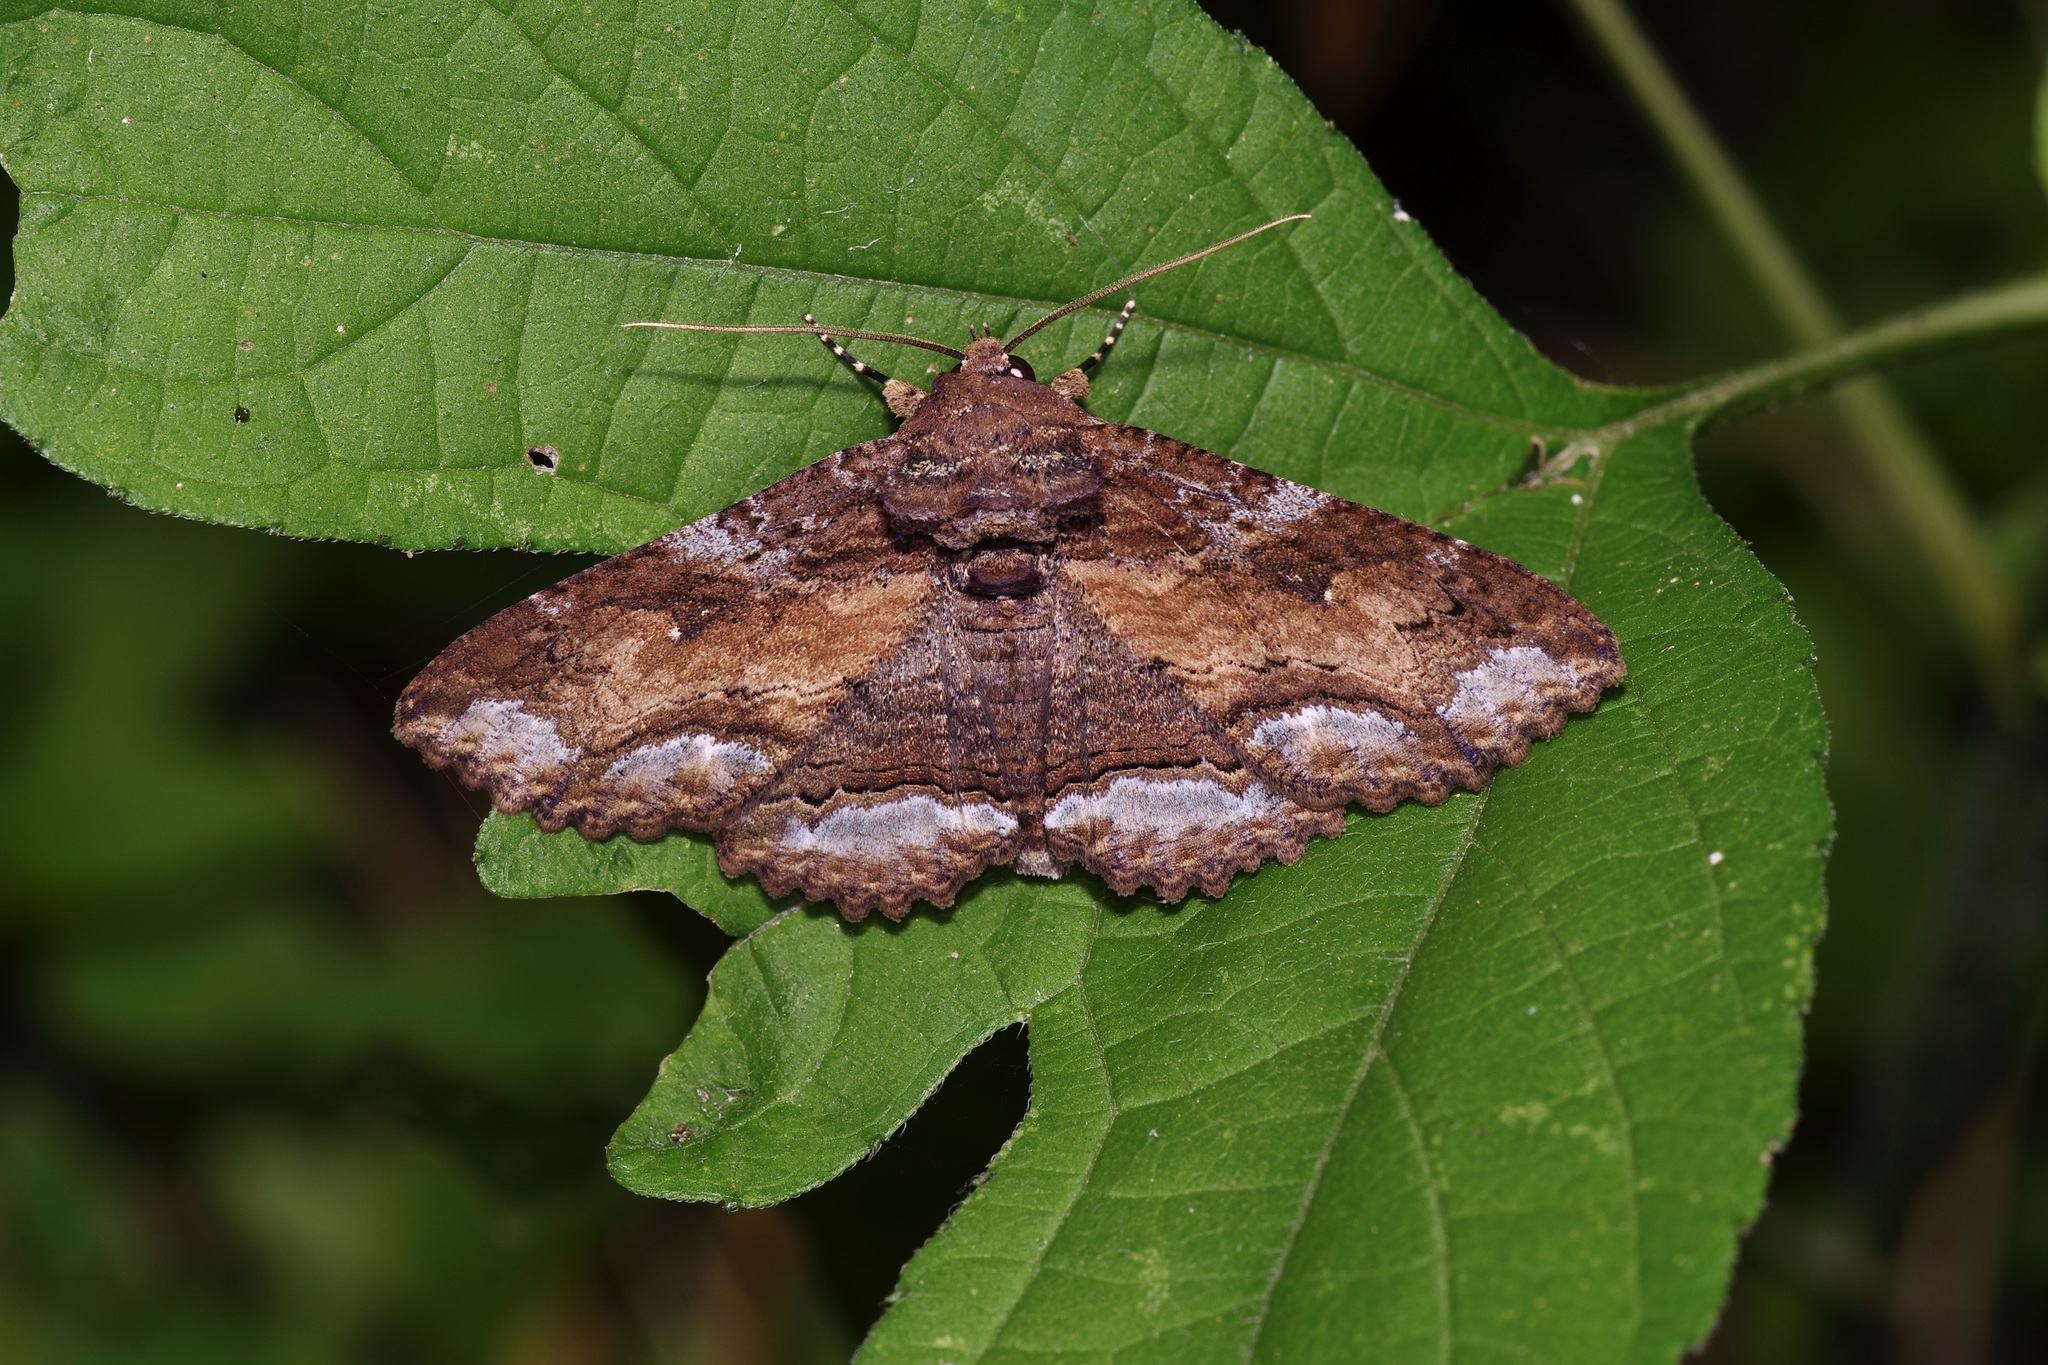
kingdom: Animalia
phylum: Arthropoda
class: Insecta
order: Lepidoptera
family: Erebidae
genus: Zale
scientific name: Zale lunata
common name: Lunate zale moth
